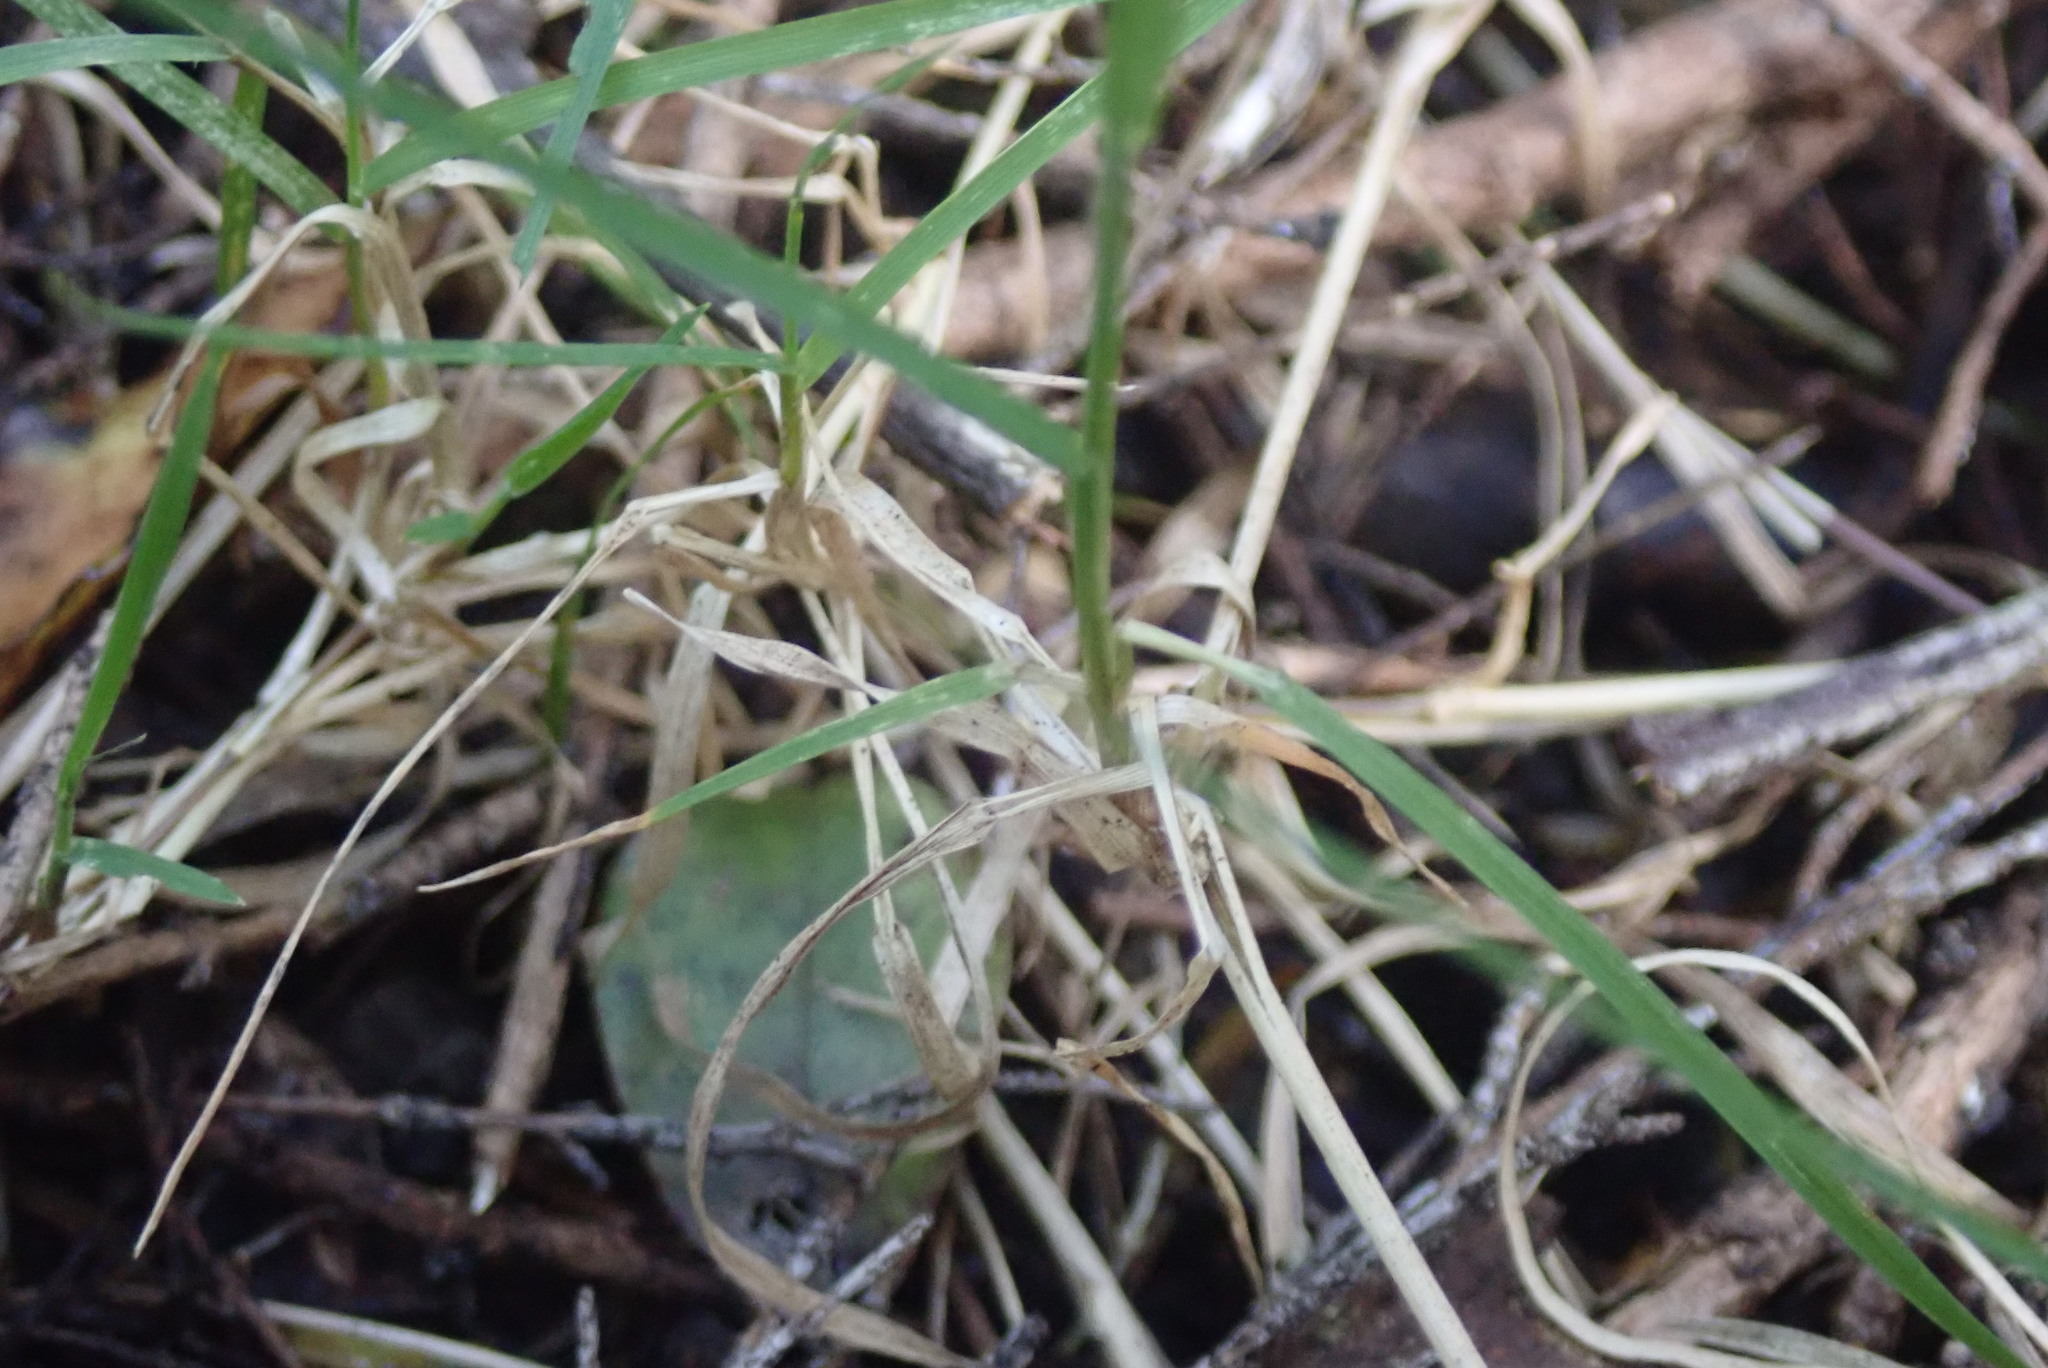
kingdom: Plantae
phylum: Tracheophyta
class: Liliopsida
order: Poales
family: Poaceae
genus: Microlaena
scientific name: Microlaena stipoides
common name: Meadow ricegrass
